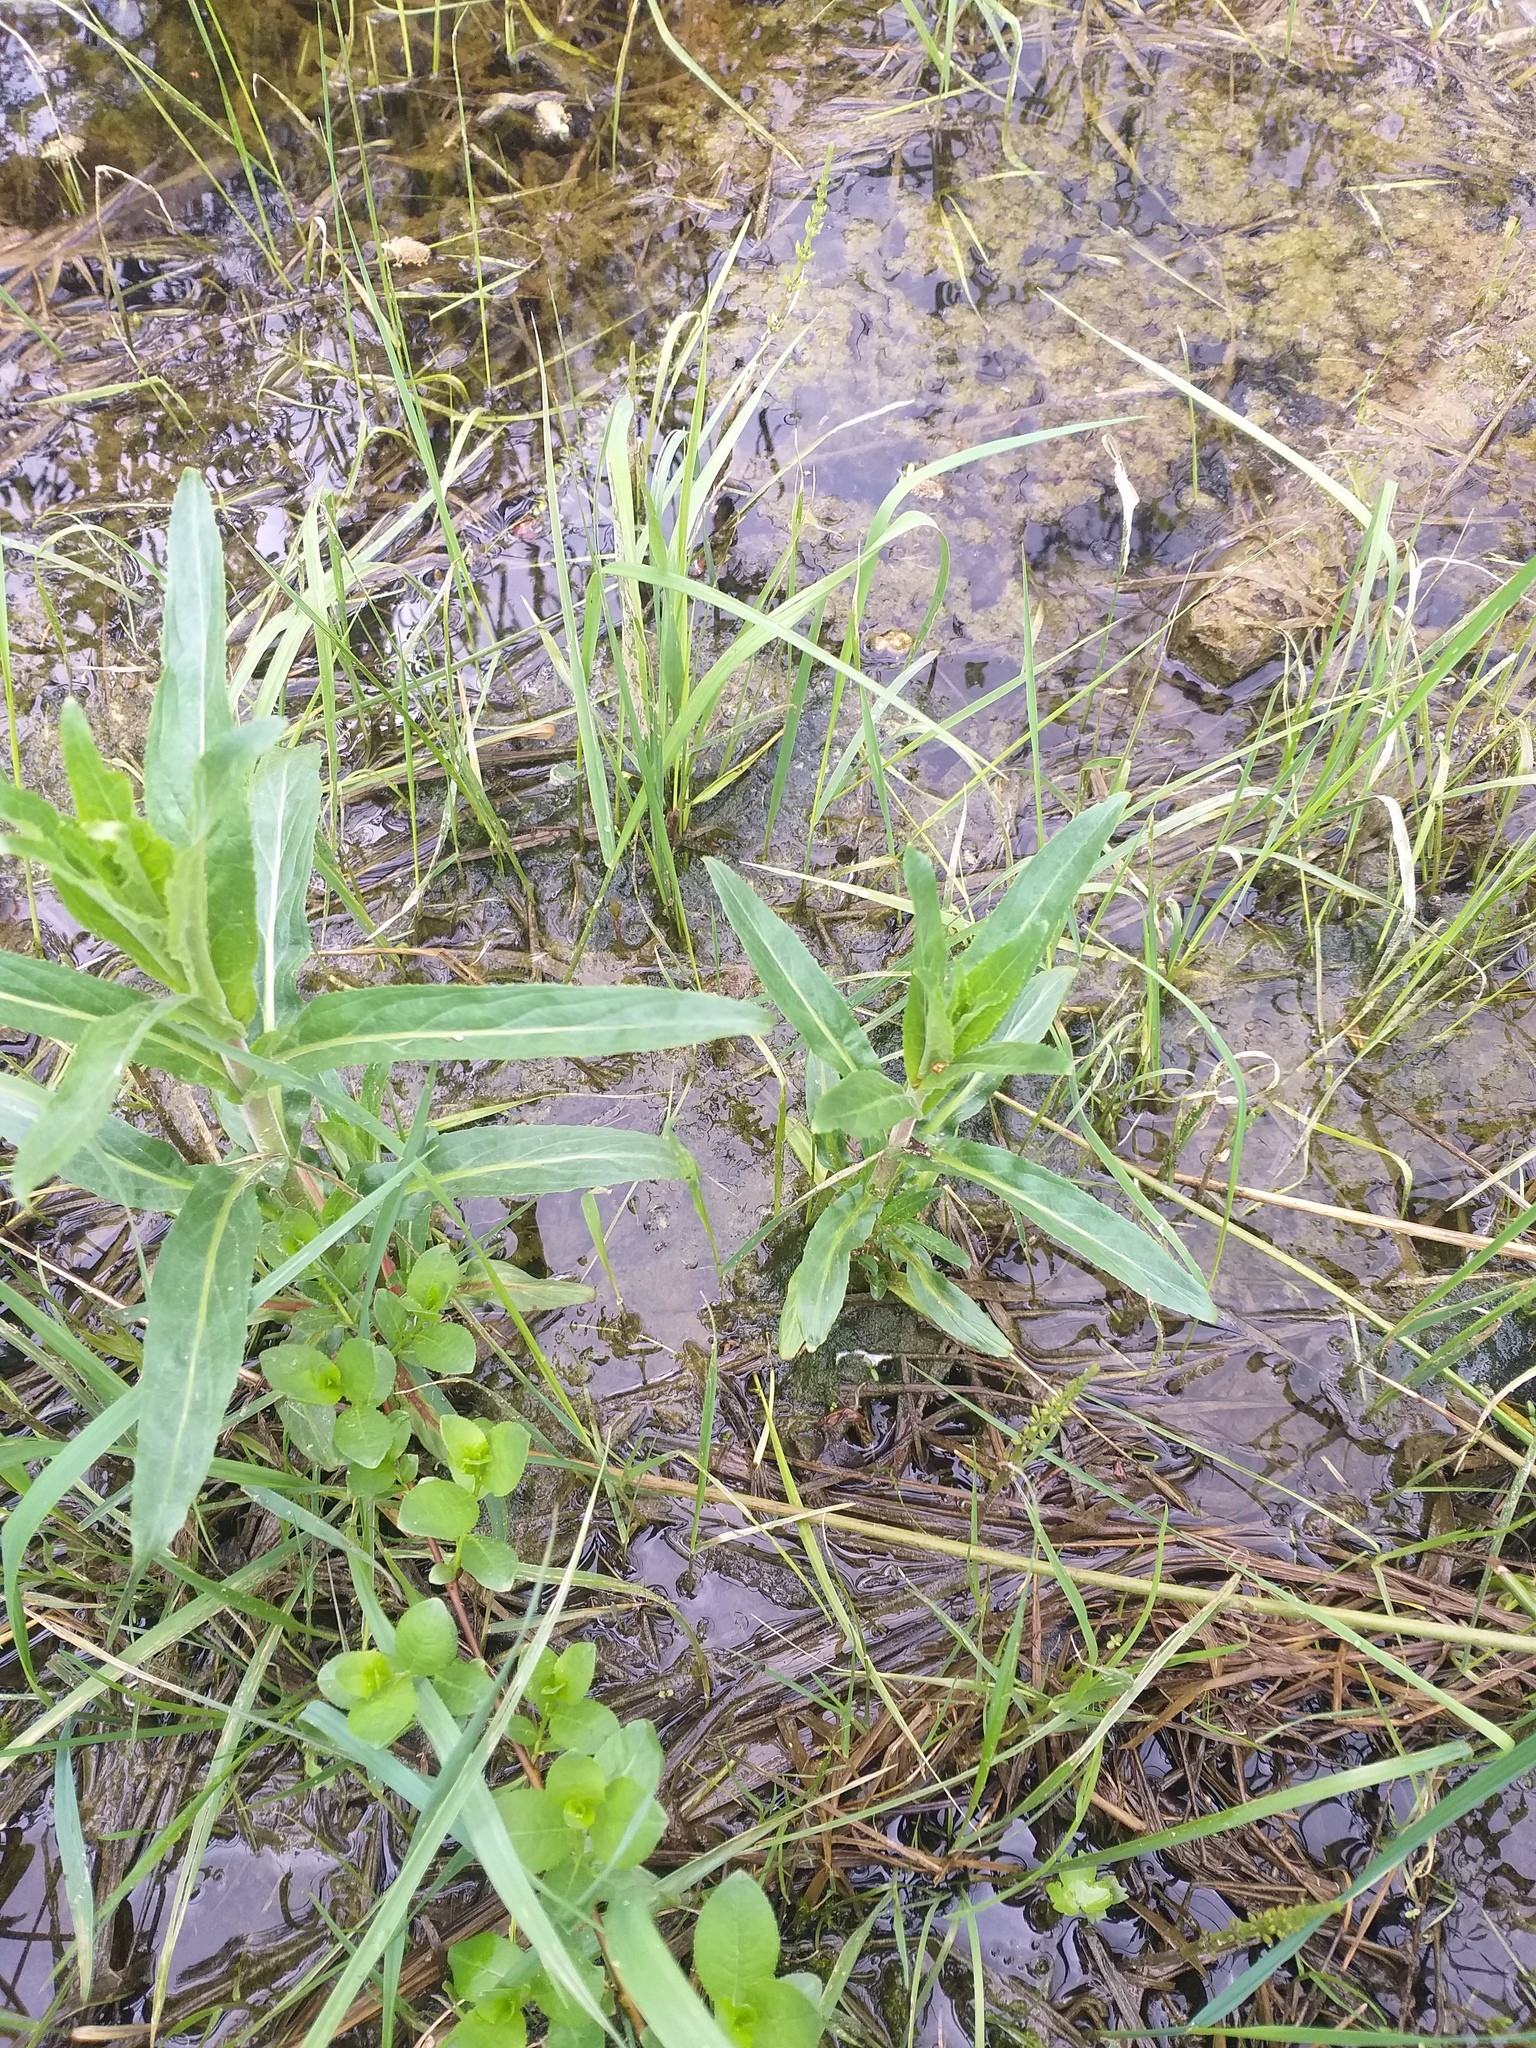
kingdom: Plantae
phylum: Tracheophyta
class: Magnoliopsida
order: Myrtales
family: Onagraceae
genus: Epilobium
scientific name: Epilobium hirsutum
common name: Great willowherb
